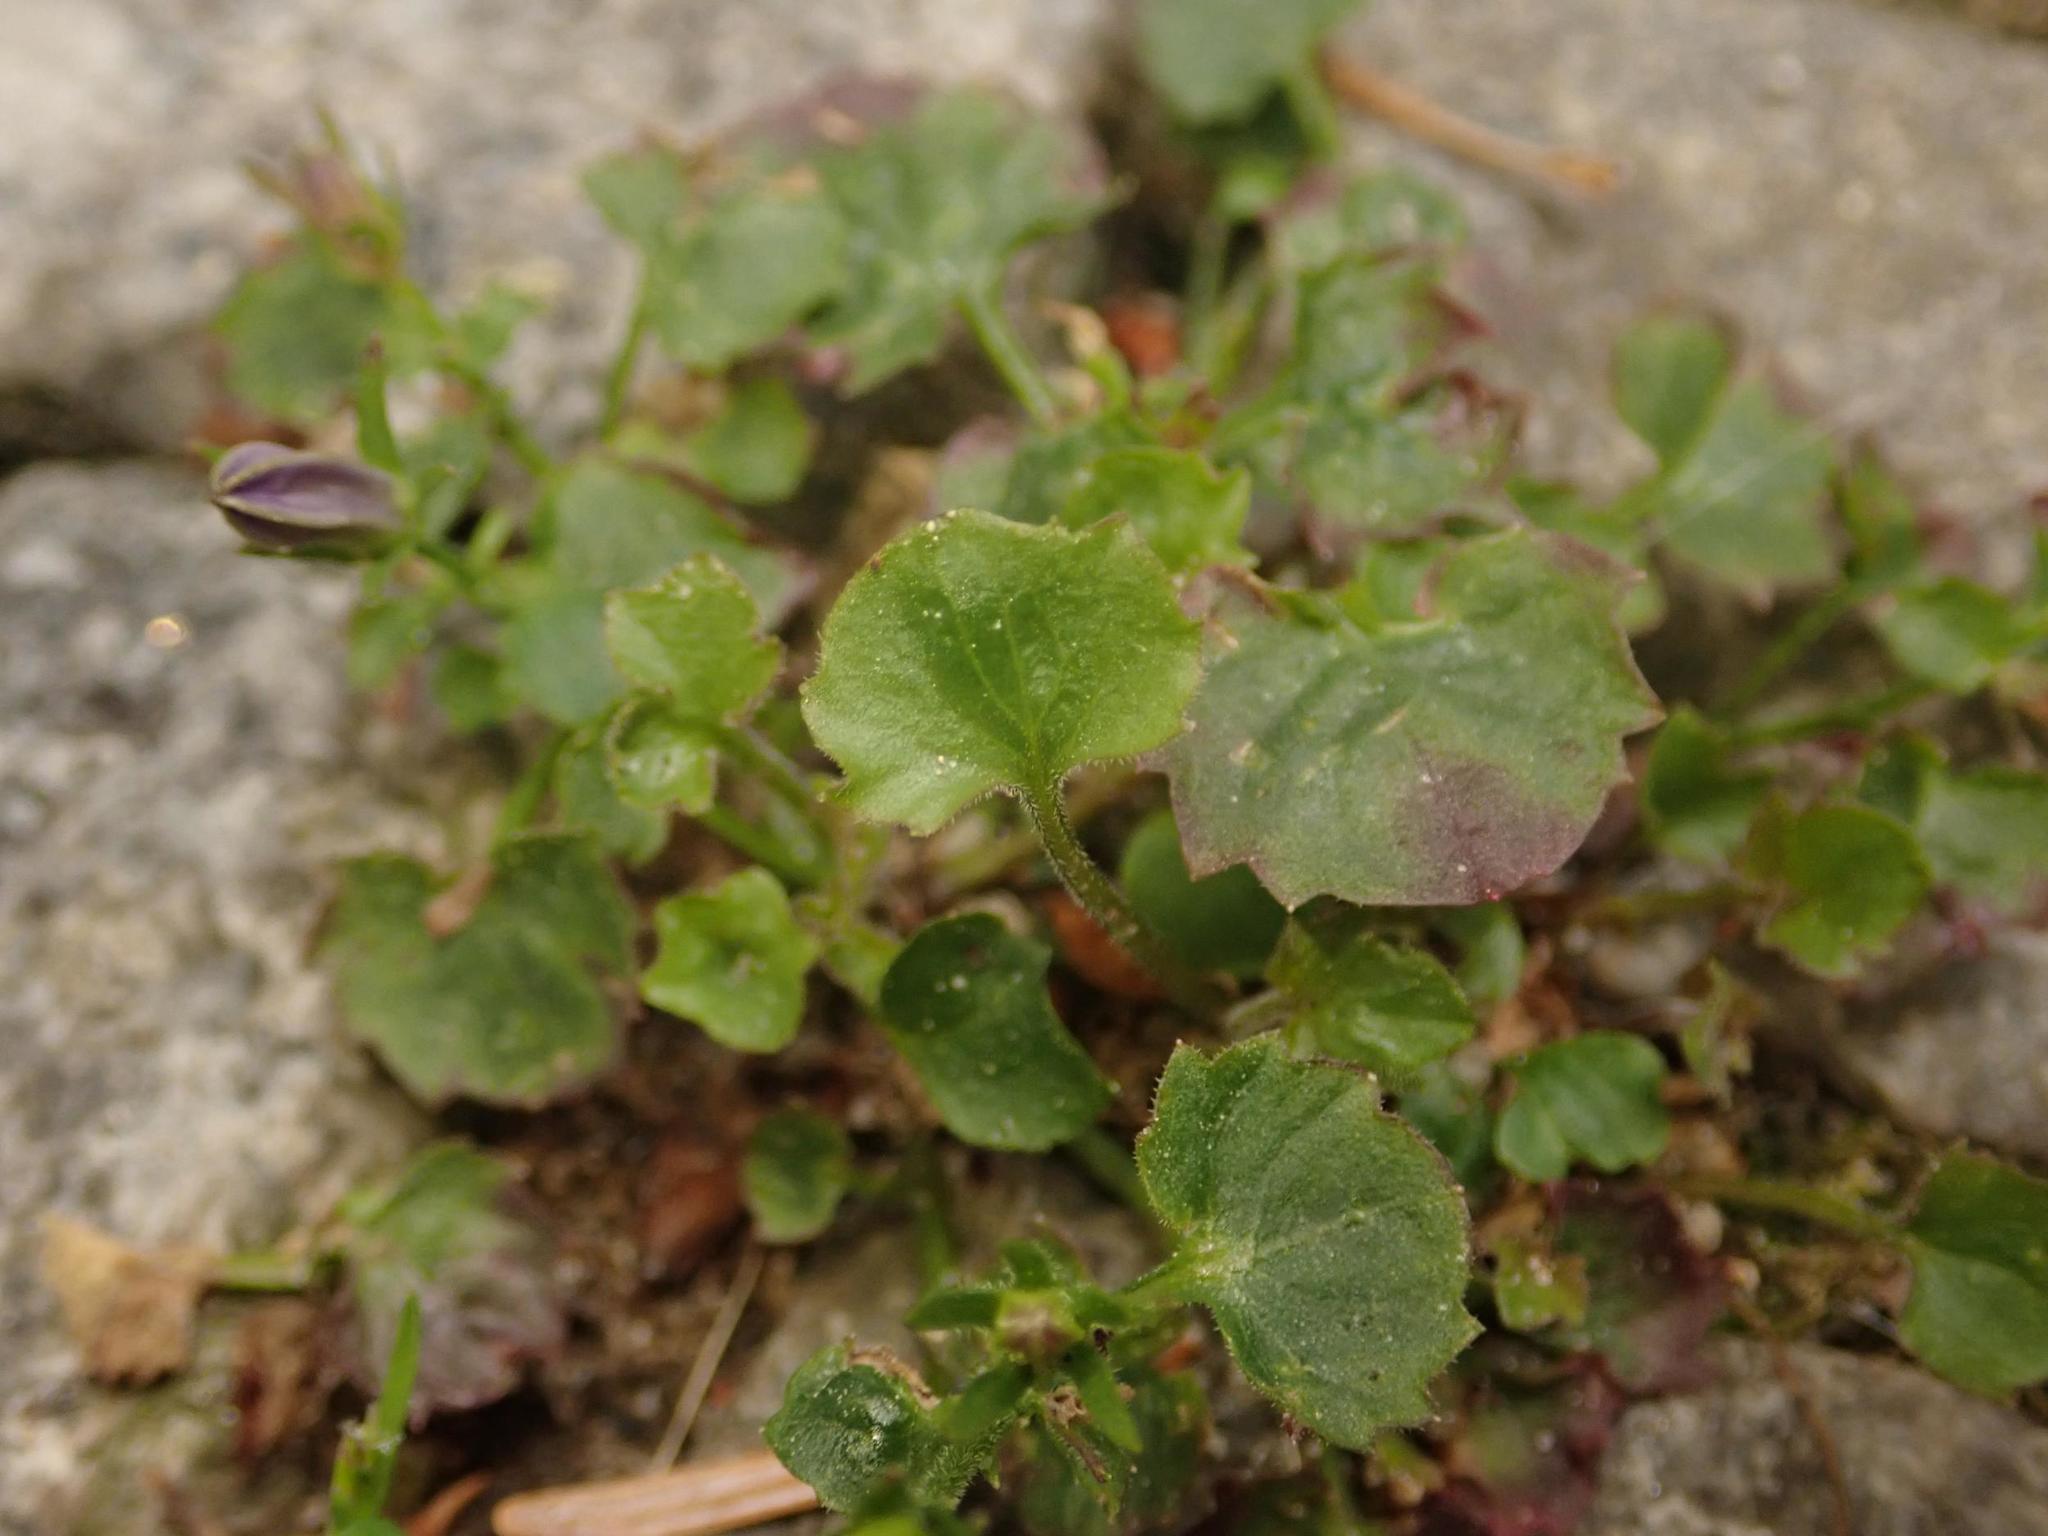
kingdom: Plantae
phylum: Tracheophyta
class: Magnoliopsida
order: Asterales
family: Campanulaceae
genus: Campanula
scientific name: Campanula poscharskyana
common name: Trailing bellflower
